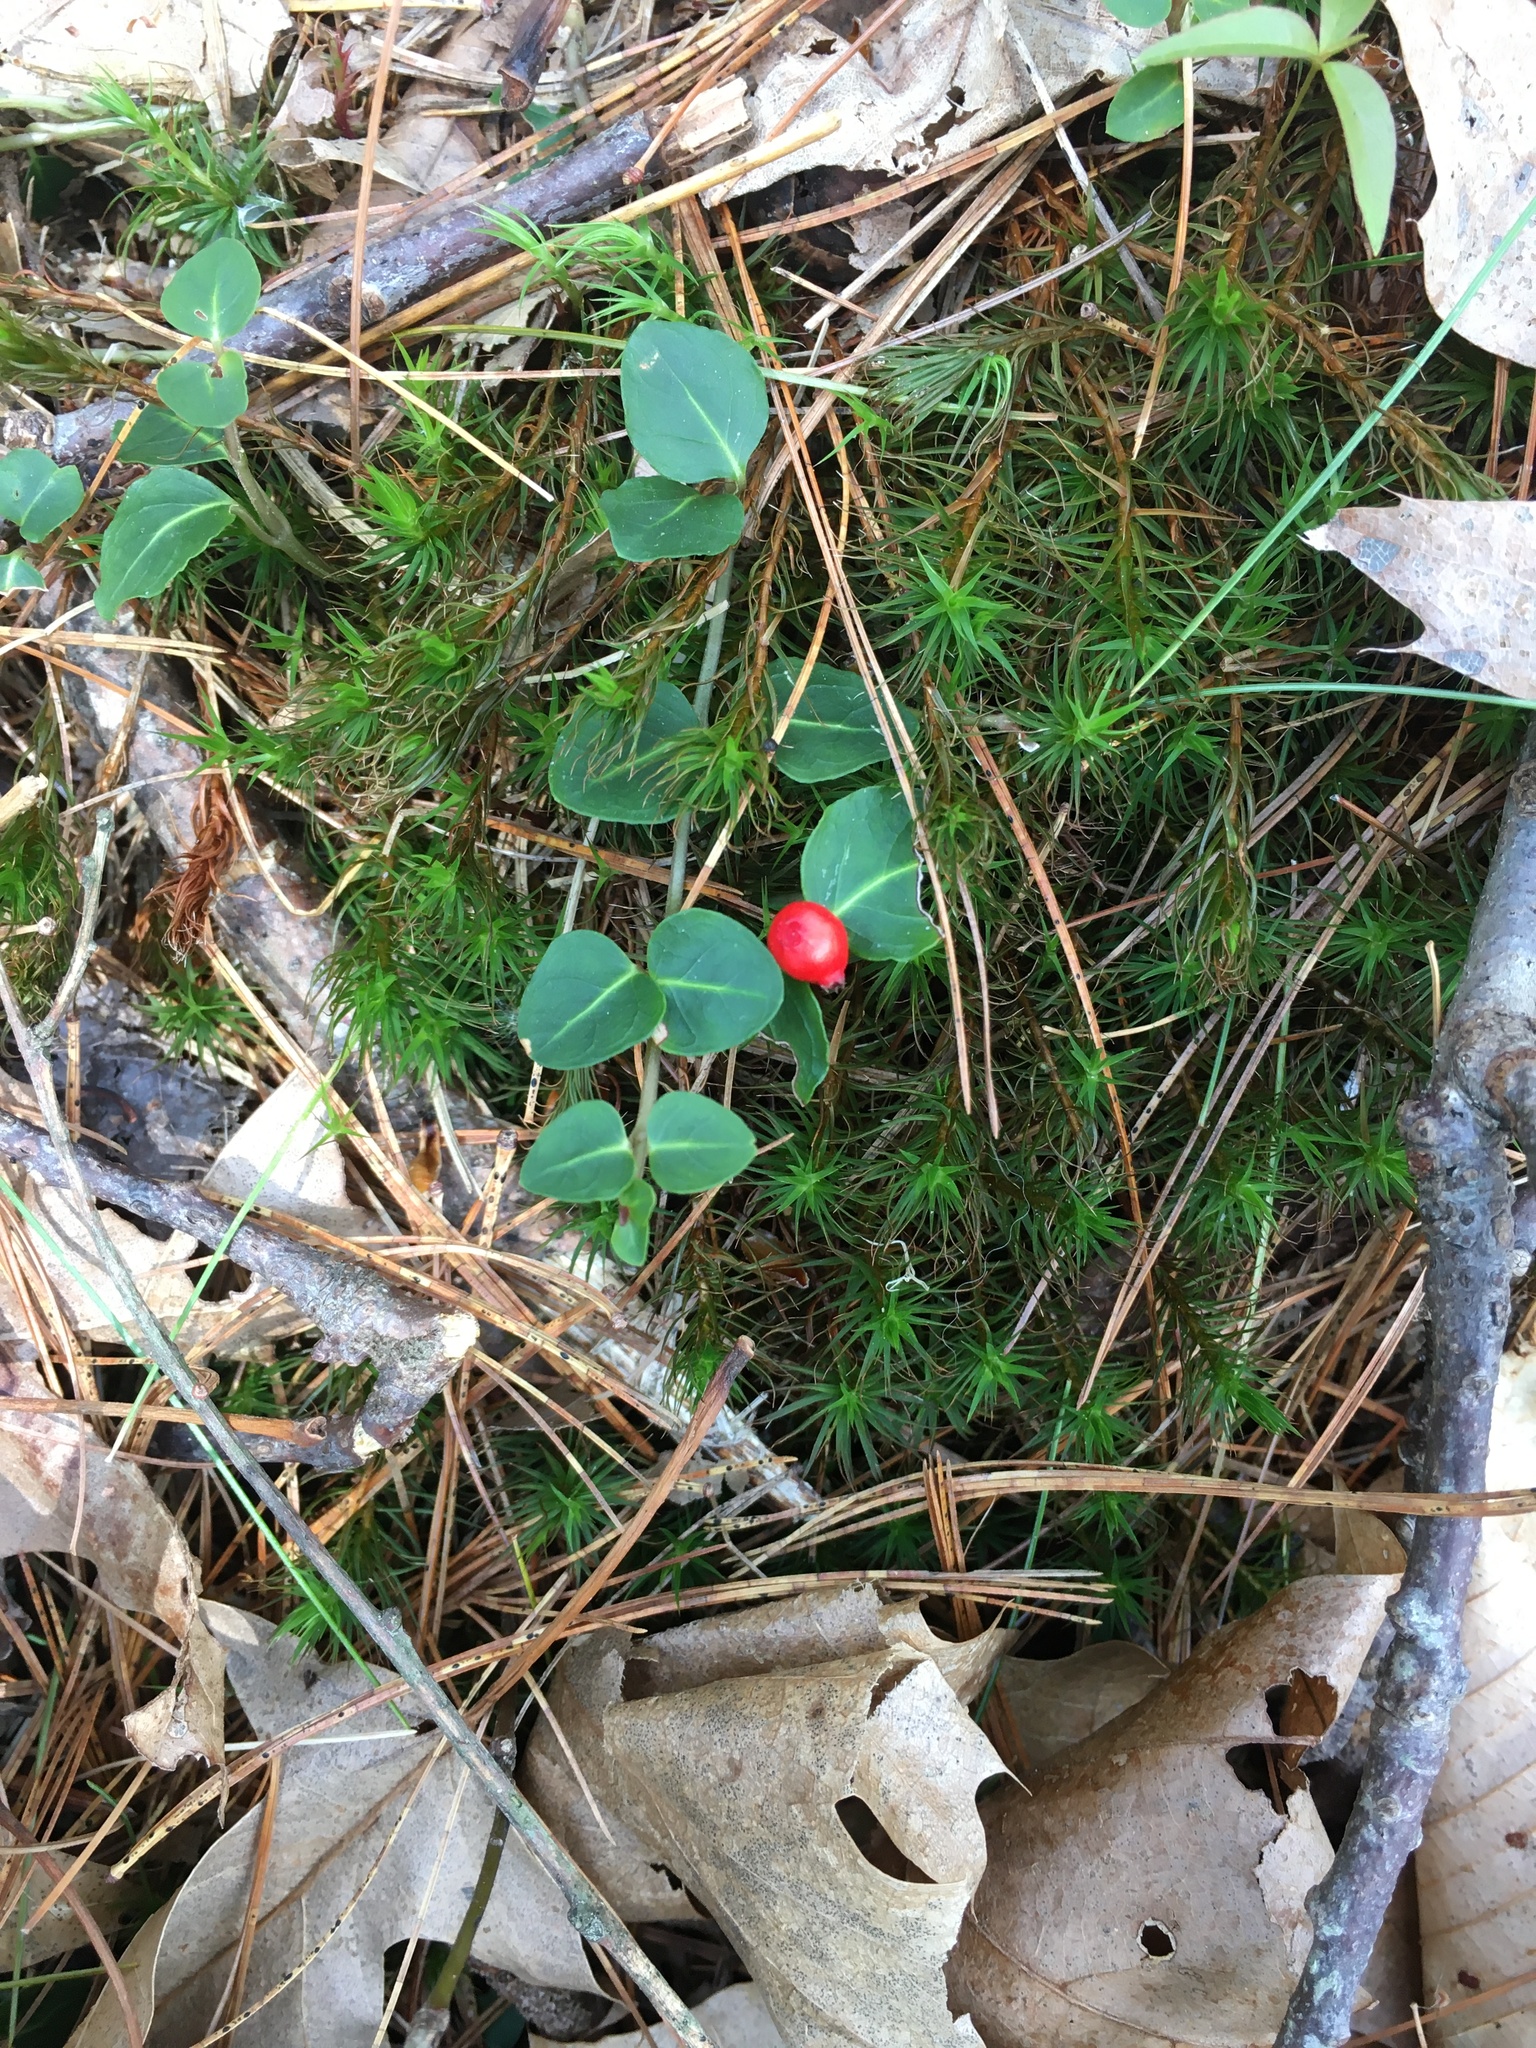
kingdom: Plantae
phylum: Tracheophyta
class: Magnoliopsida
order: Gentianales
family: Rubiaceae
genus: Mitchella
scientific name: Mitchella repens
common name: Partridge-berry
